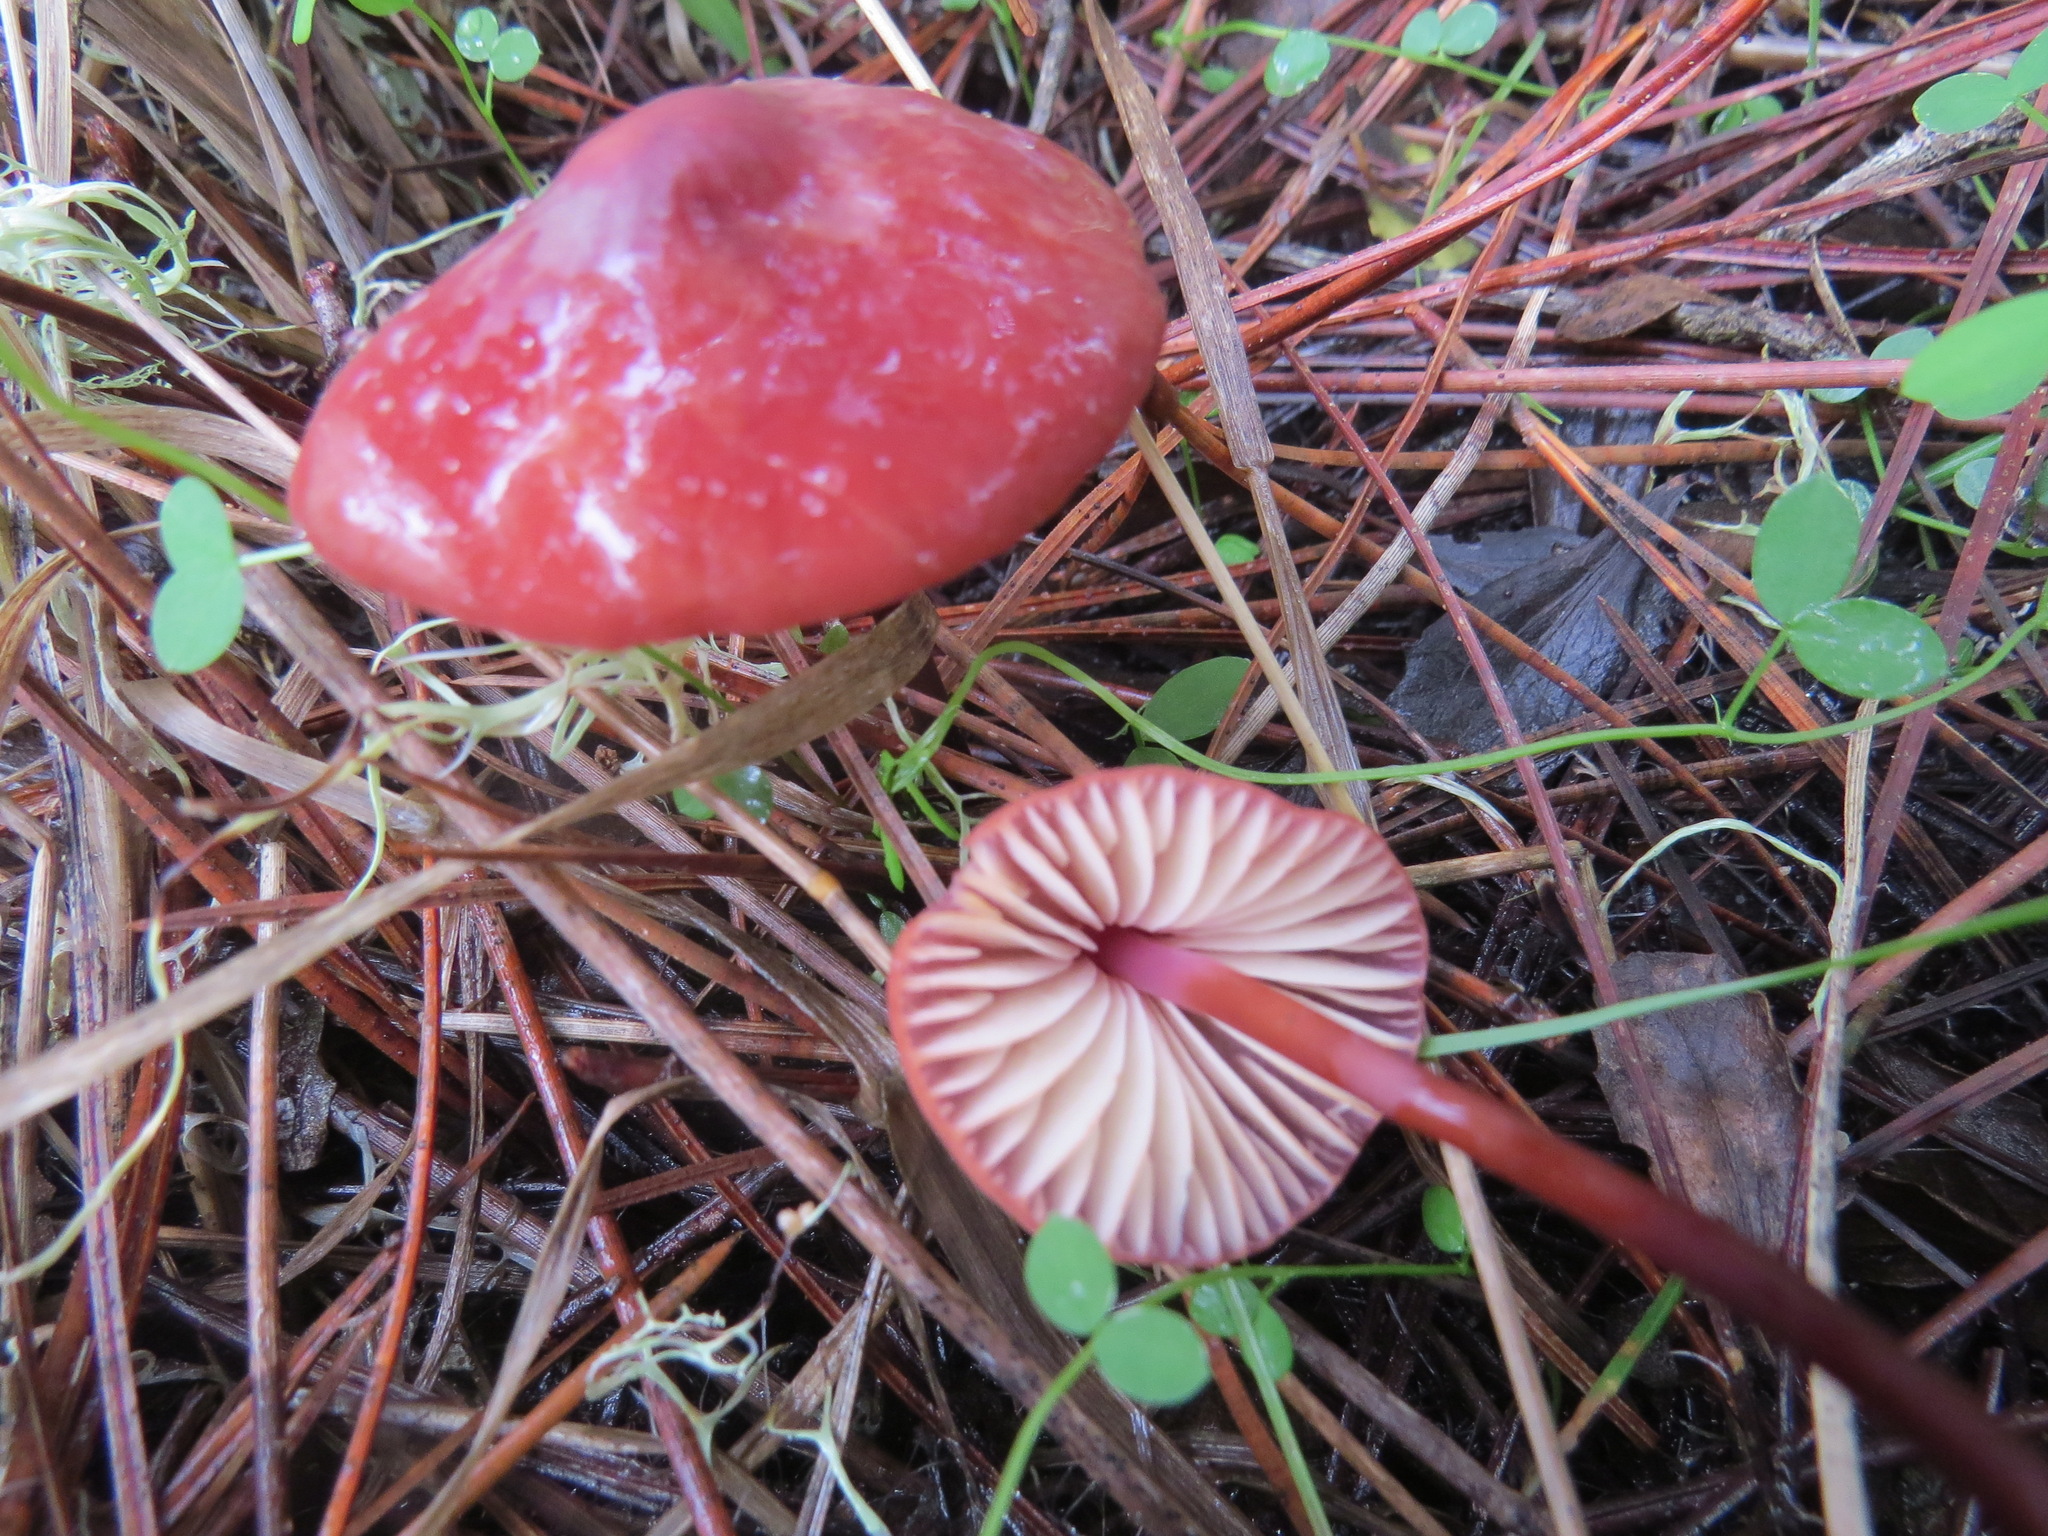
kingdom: Fungi
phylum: Basidiomycota
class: Agaricomycetes
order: Agaricales
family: Marasmiaceae
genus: Marasmius
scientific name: Marasmius plicatulus
